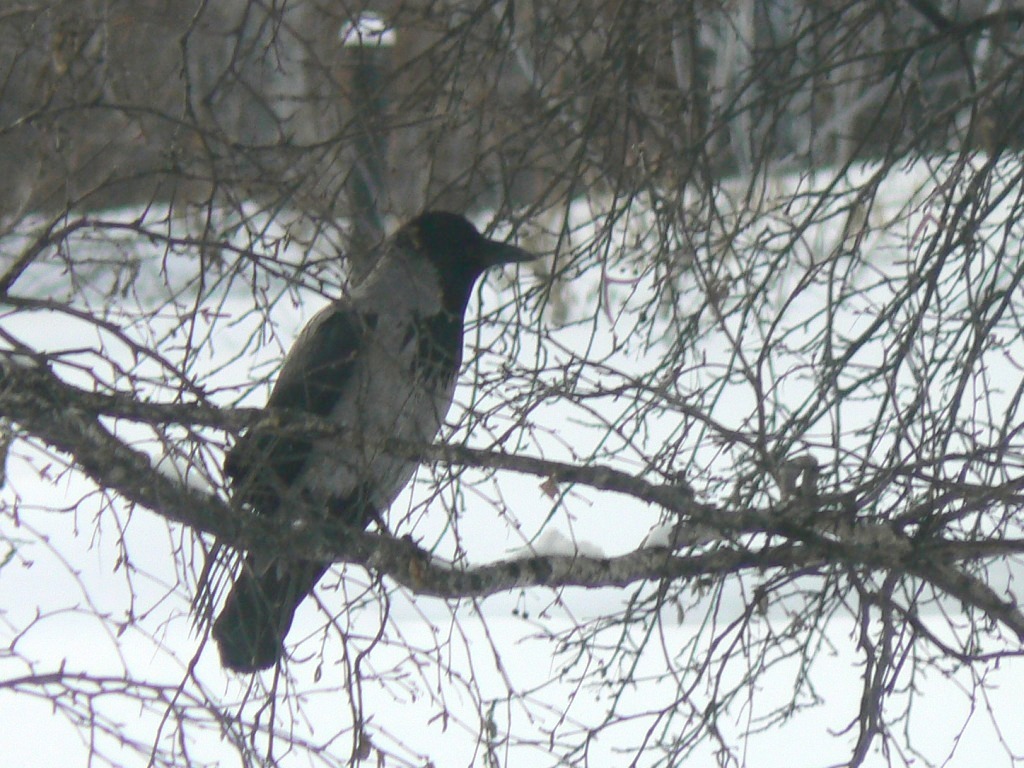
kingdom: Animalia
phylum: Chordata
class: Aves
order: Passeriformes
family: Corvidae
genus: Corvus
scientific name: Corvus cornix
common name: Hooded crow
